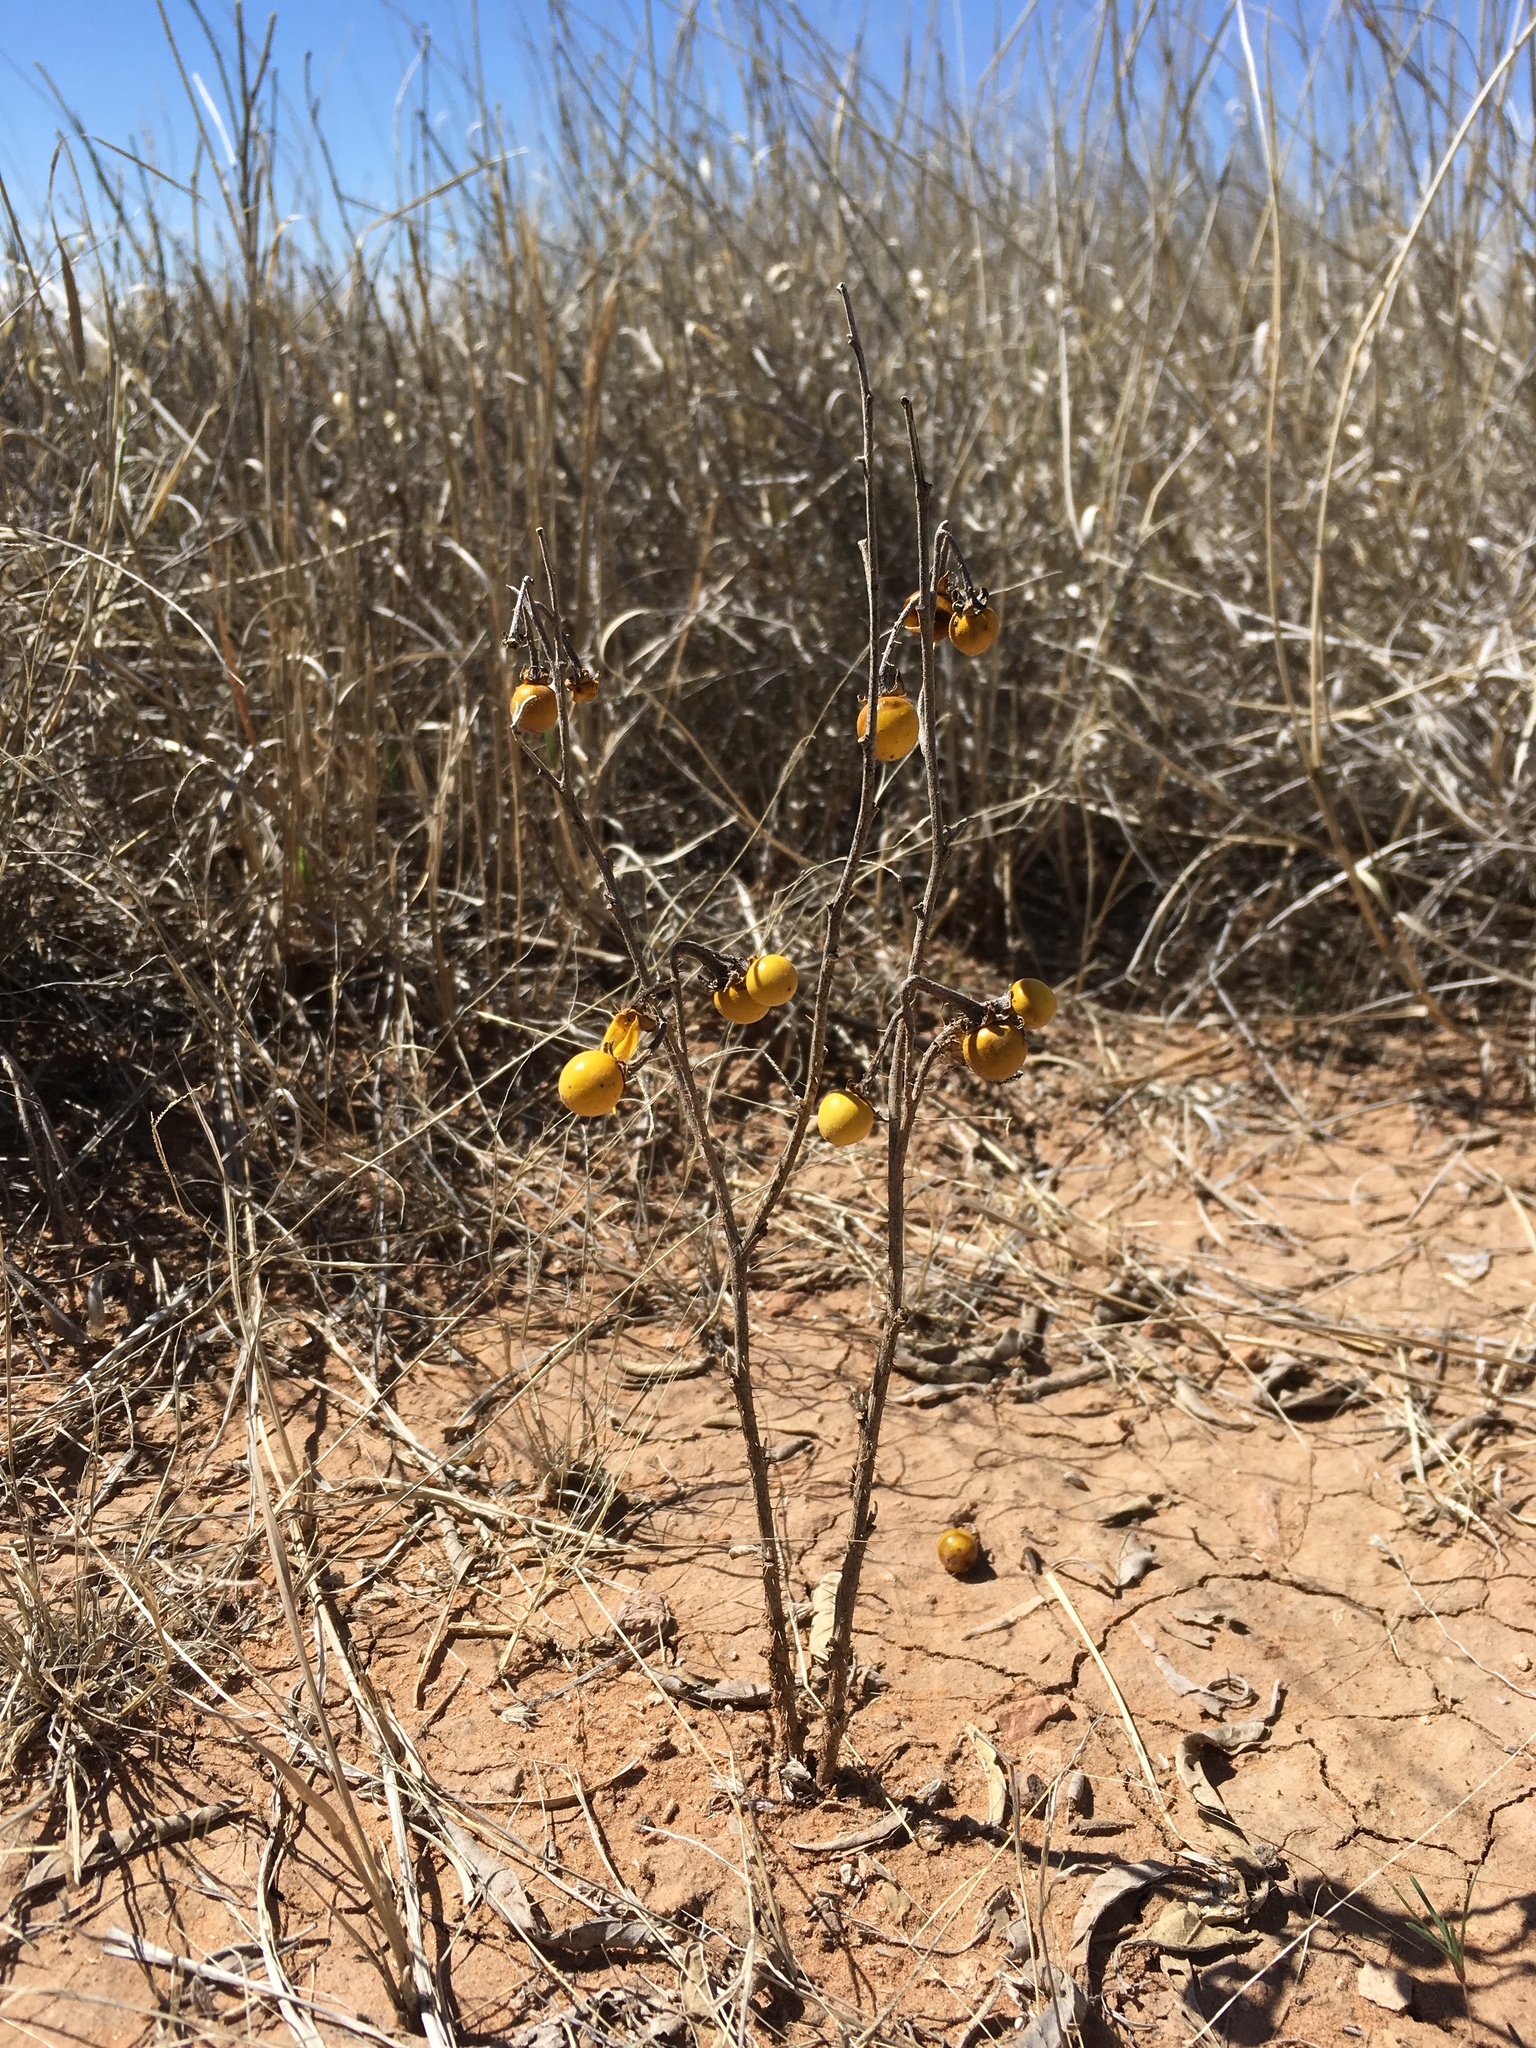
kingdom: Plantae
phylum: Tracheophyta
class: Magnoliopsida
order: Solanales
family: Solanaceae
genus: Solanum
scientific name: Solanum elaeagnifolium
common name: Silverleaf nightshade
